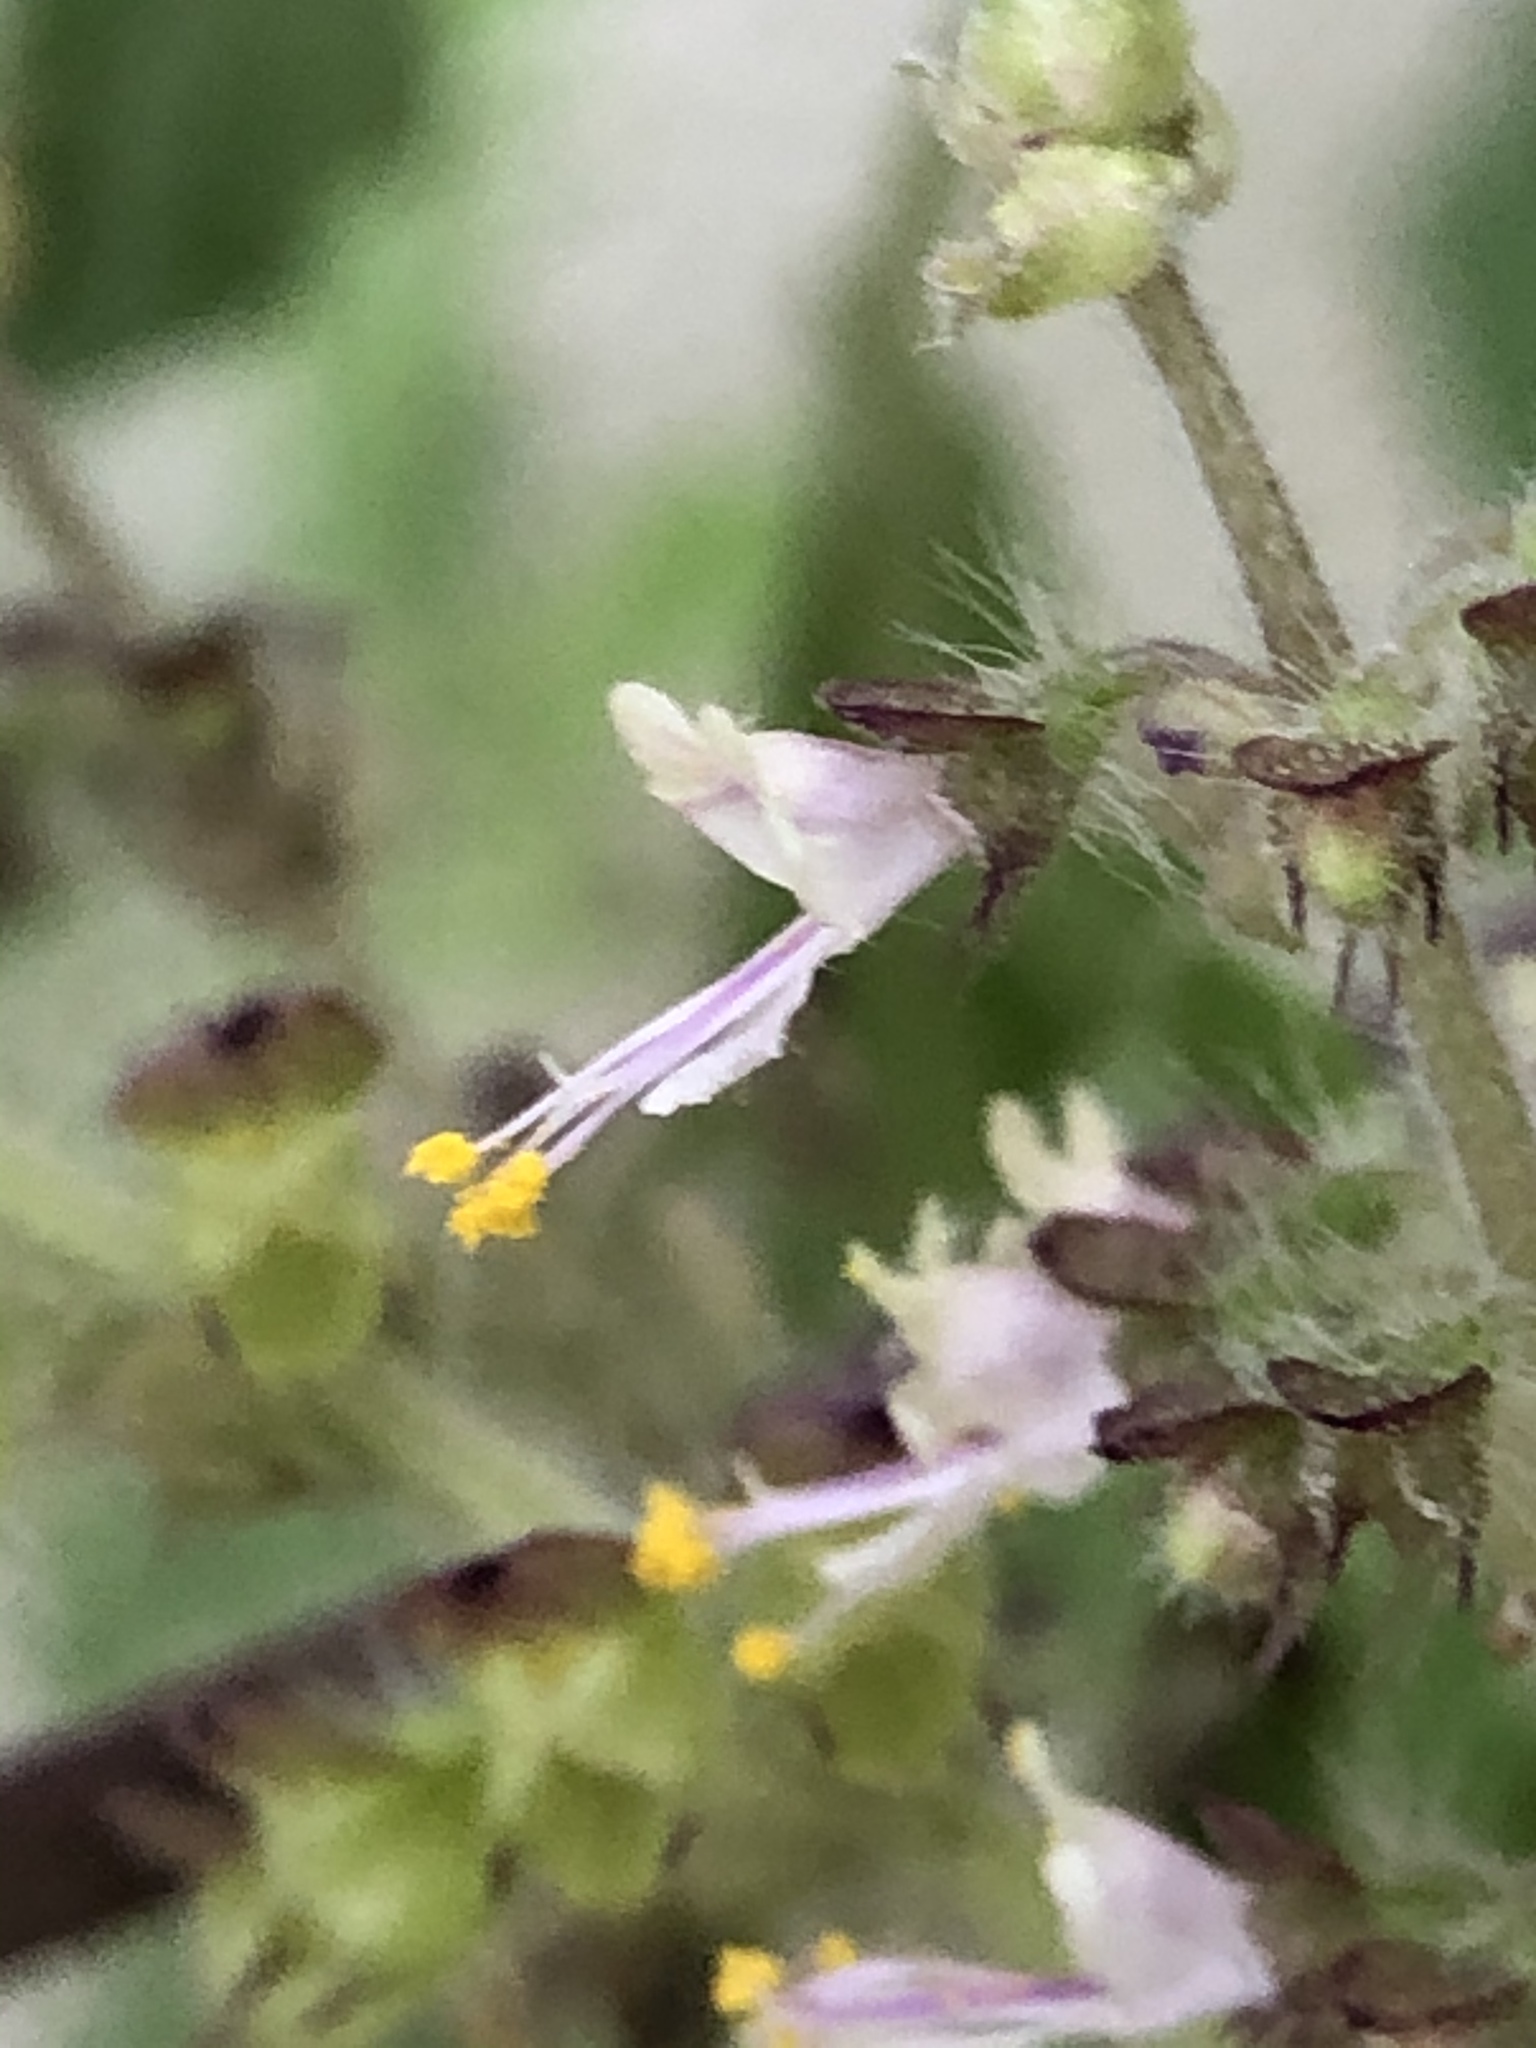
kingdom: Plantae
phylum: Tracheophyta
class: Magnoliopsida
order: Lamiales
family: Lamiaceae
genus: Ocimum
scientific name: Ocimum tenuiflorum
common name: Sacred basil
